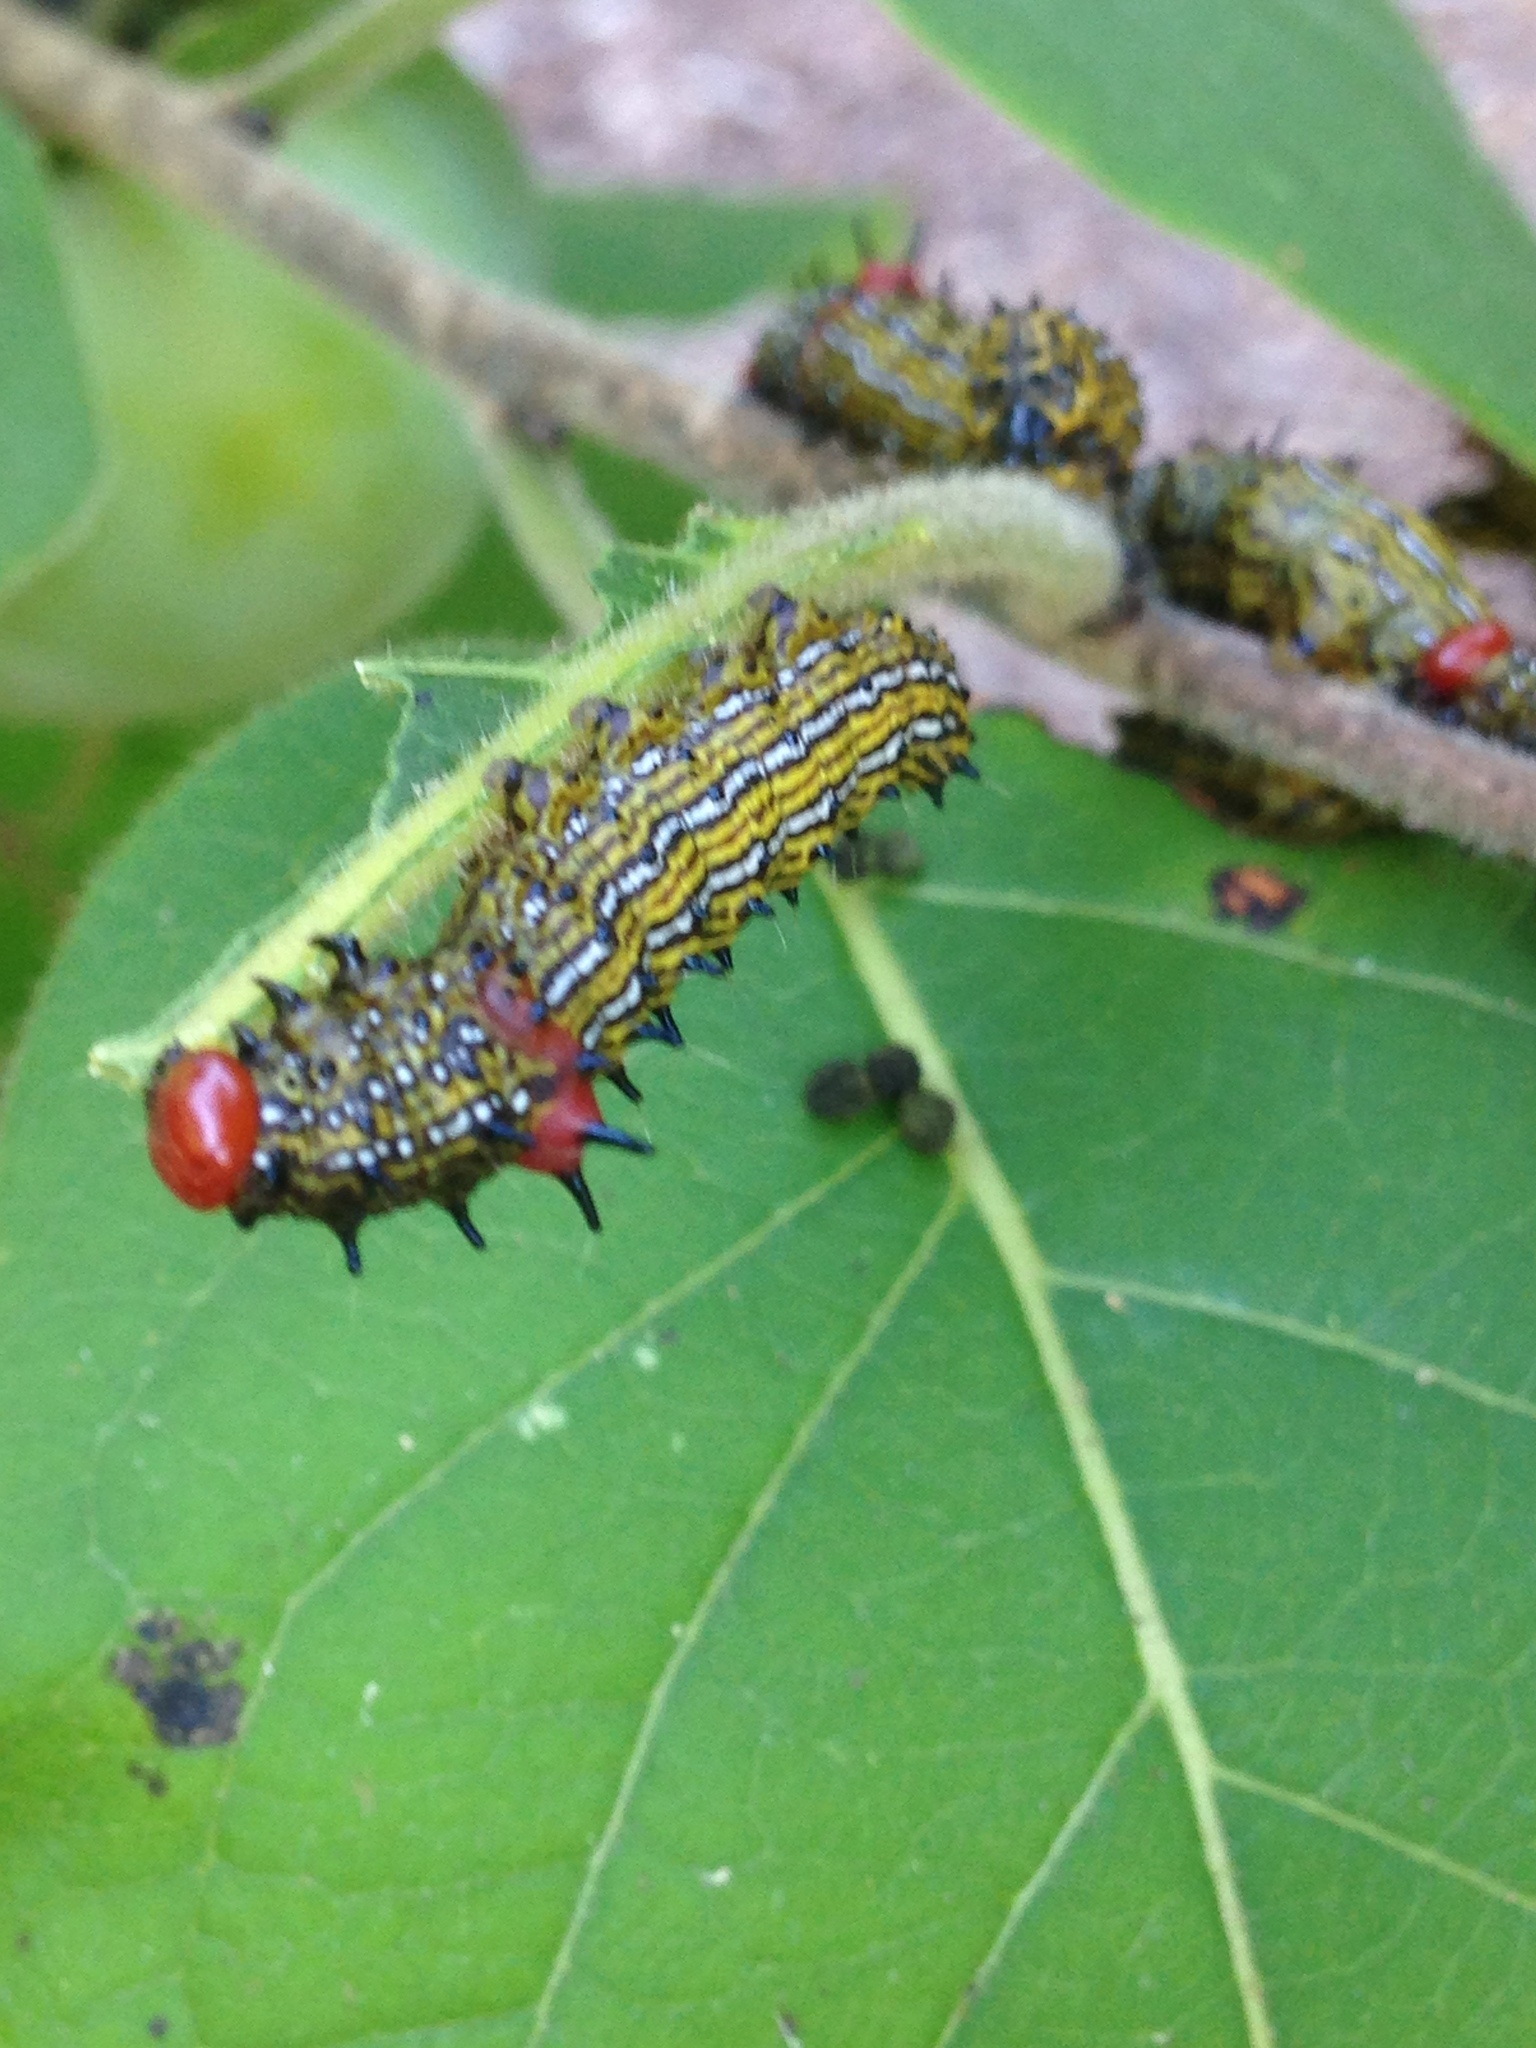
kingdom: Animalia
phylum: Arthropoda
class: Insecta
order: Lepidoptera
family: Notodontidae
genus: Schizura
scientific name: Schizura
